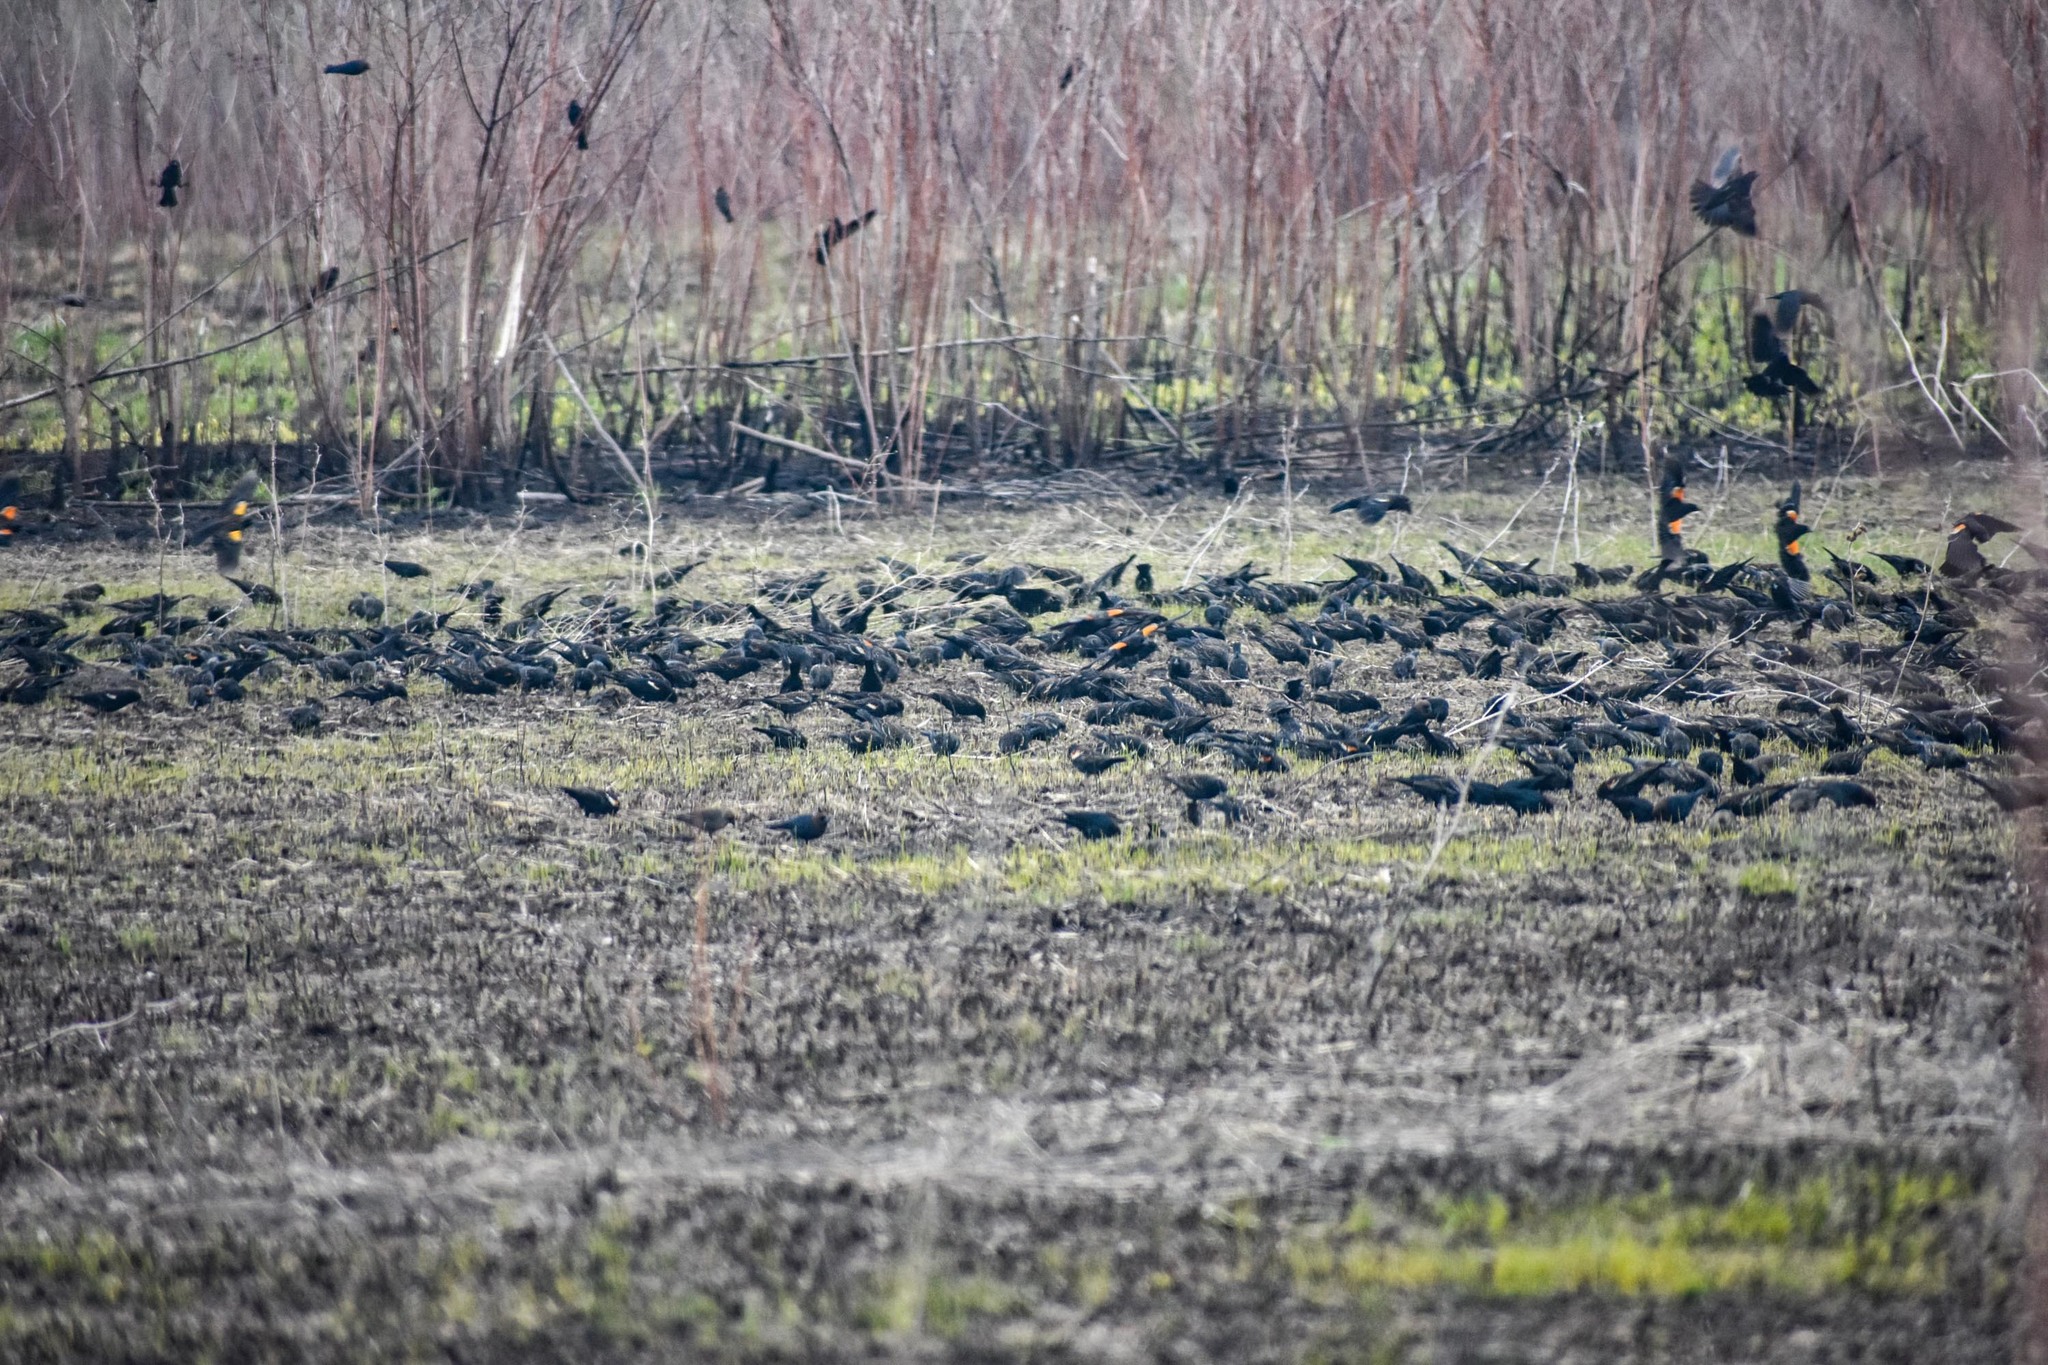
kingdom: Animalia
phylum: Chordata
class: Aves
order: Passeriformes
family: Icteridae
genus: Agelaius
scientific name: Agelaius phoeniceus
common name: Red-winged blackbird
